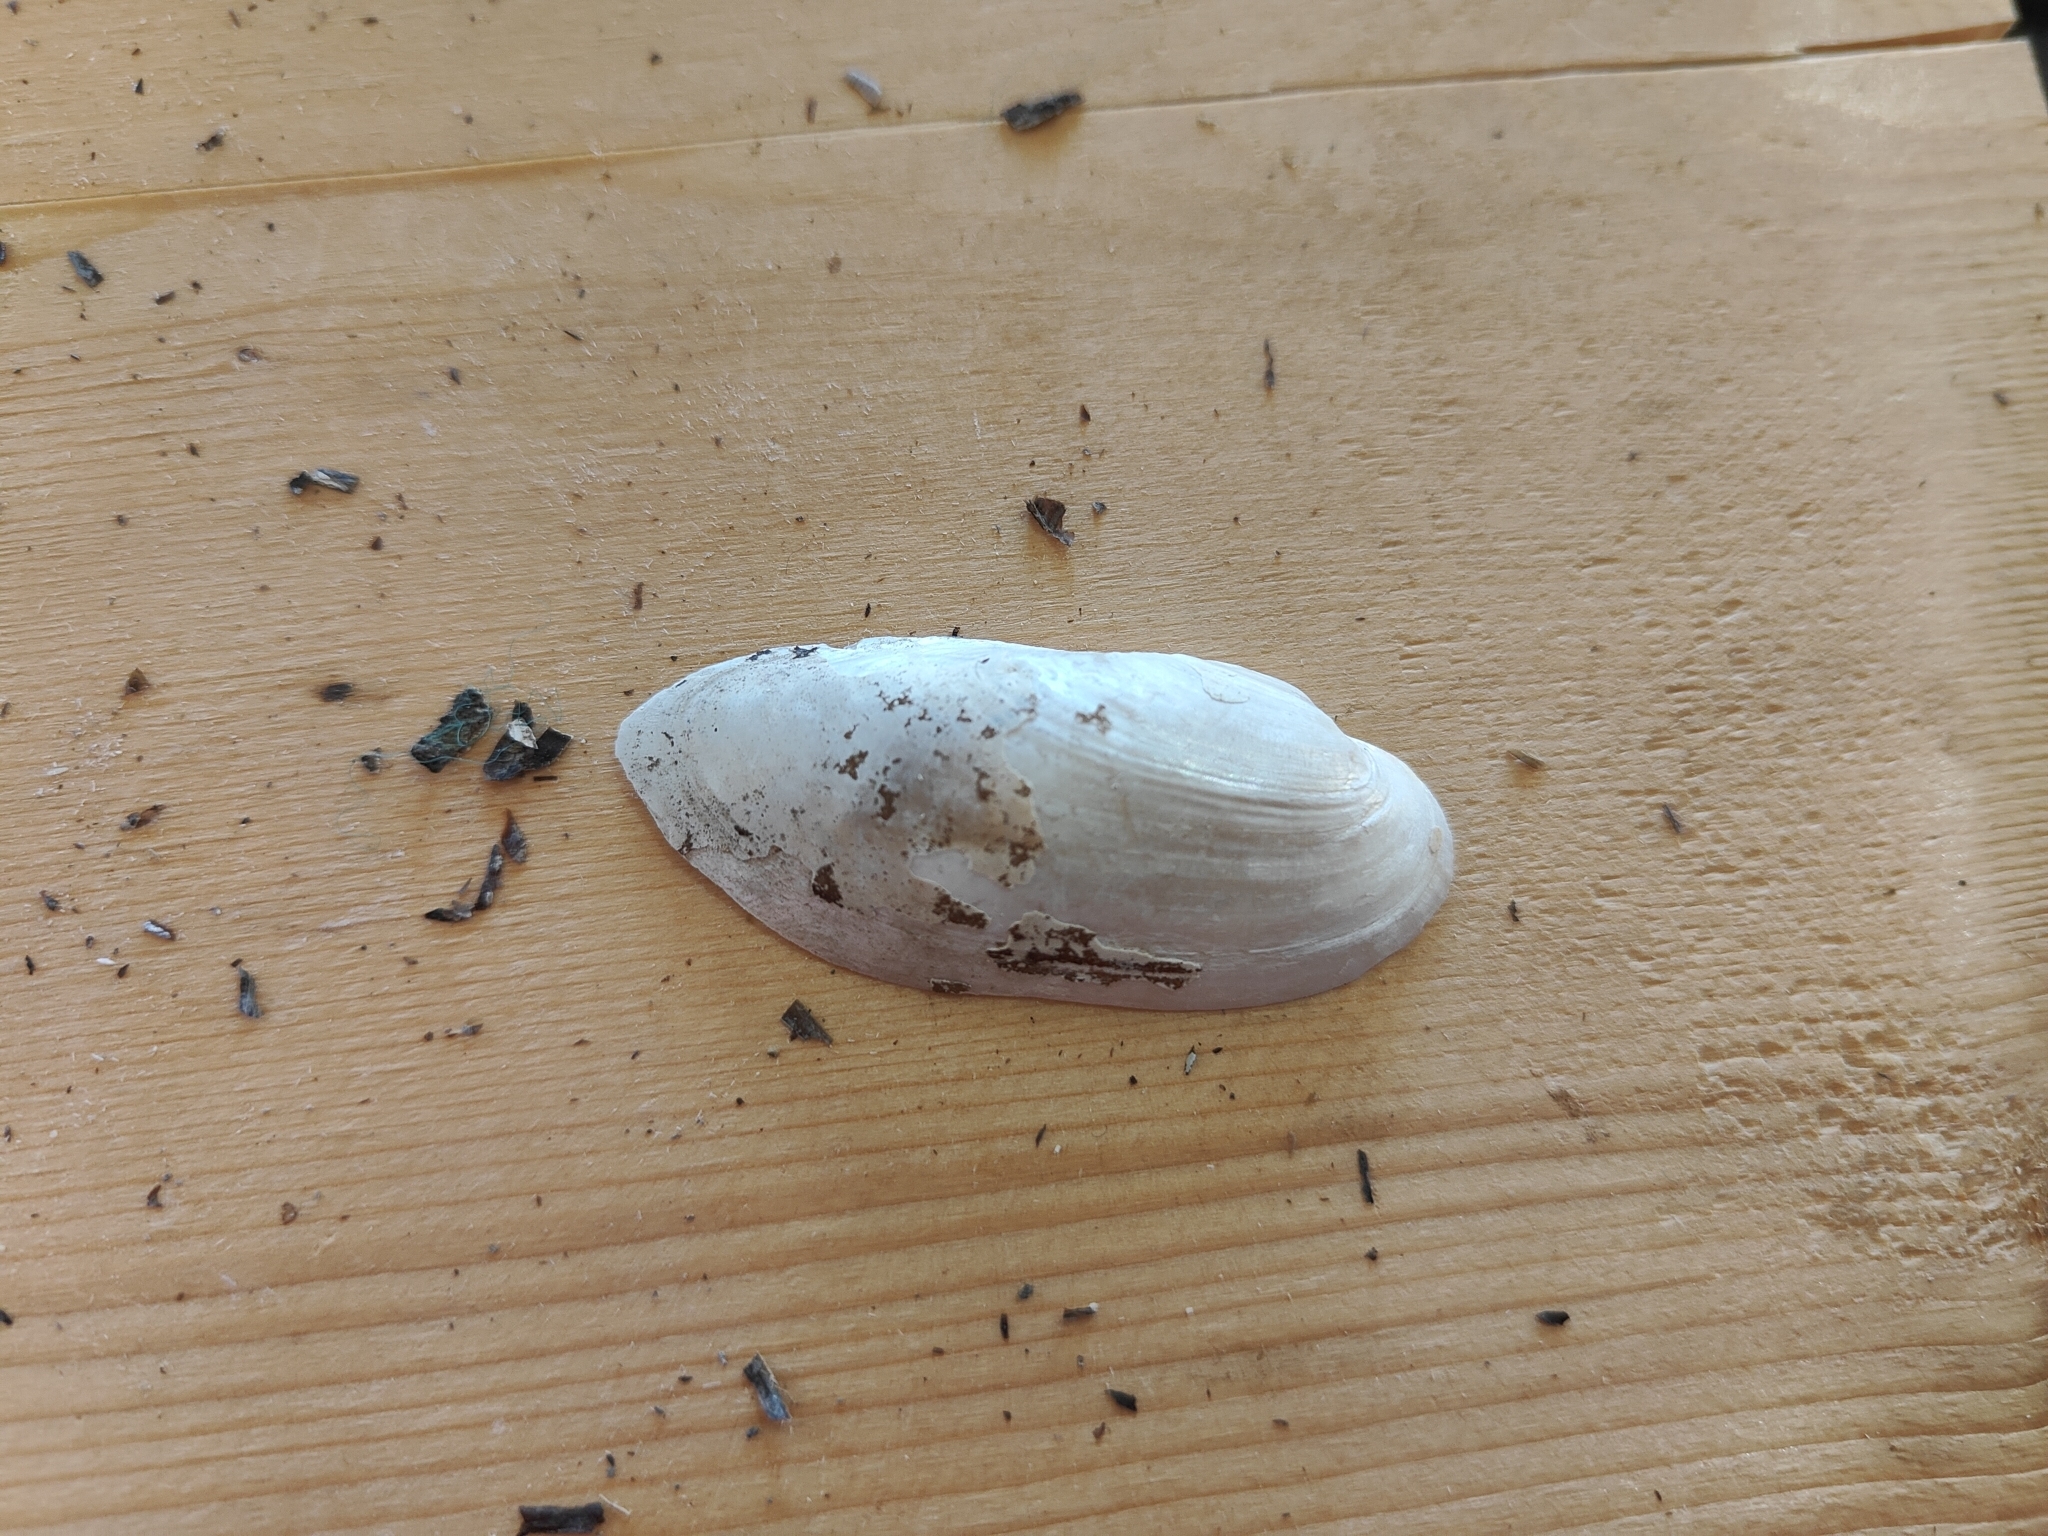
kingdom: Animalia
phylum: Mollusca
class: Bivalvia
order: Unionida
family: Unionidae
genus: Lampsilis
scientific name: Lampsilis teres
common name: Yellow sandshell
